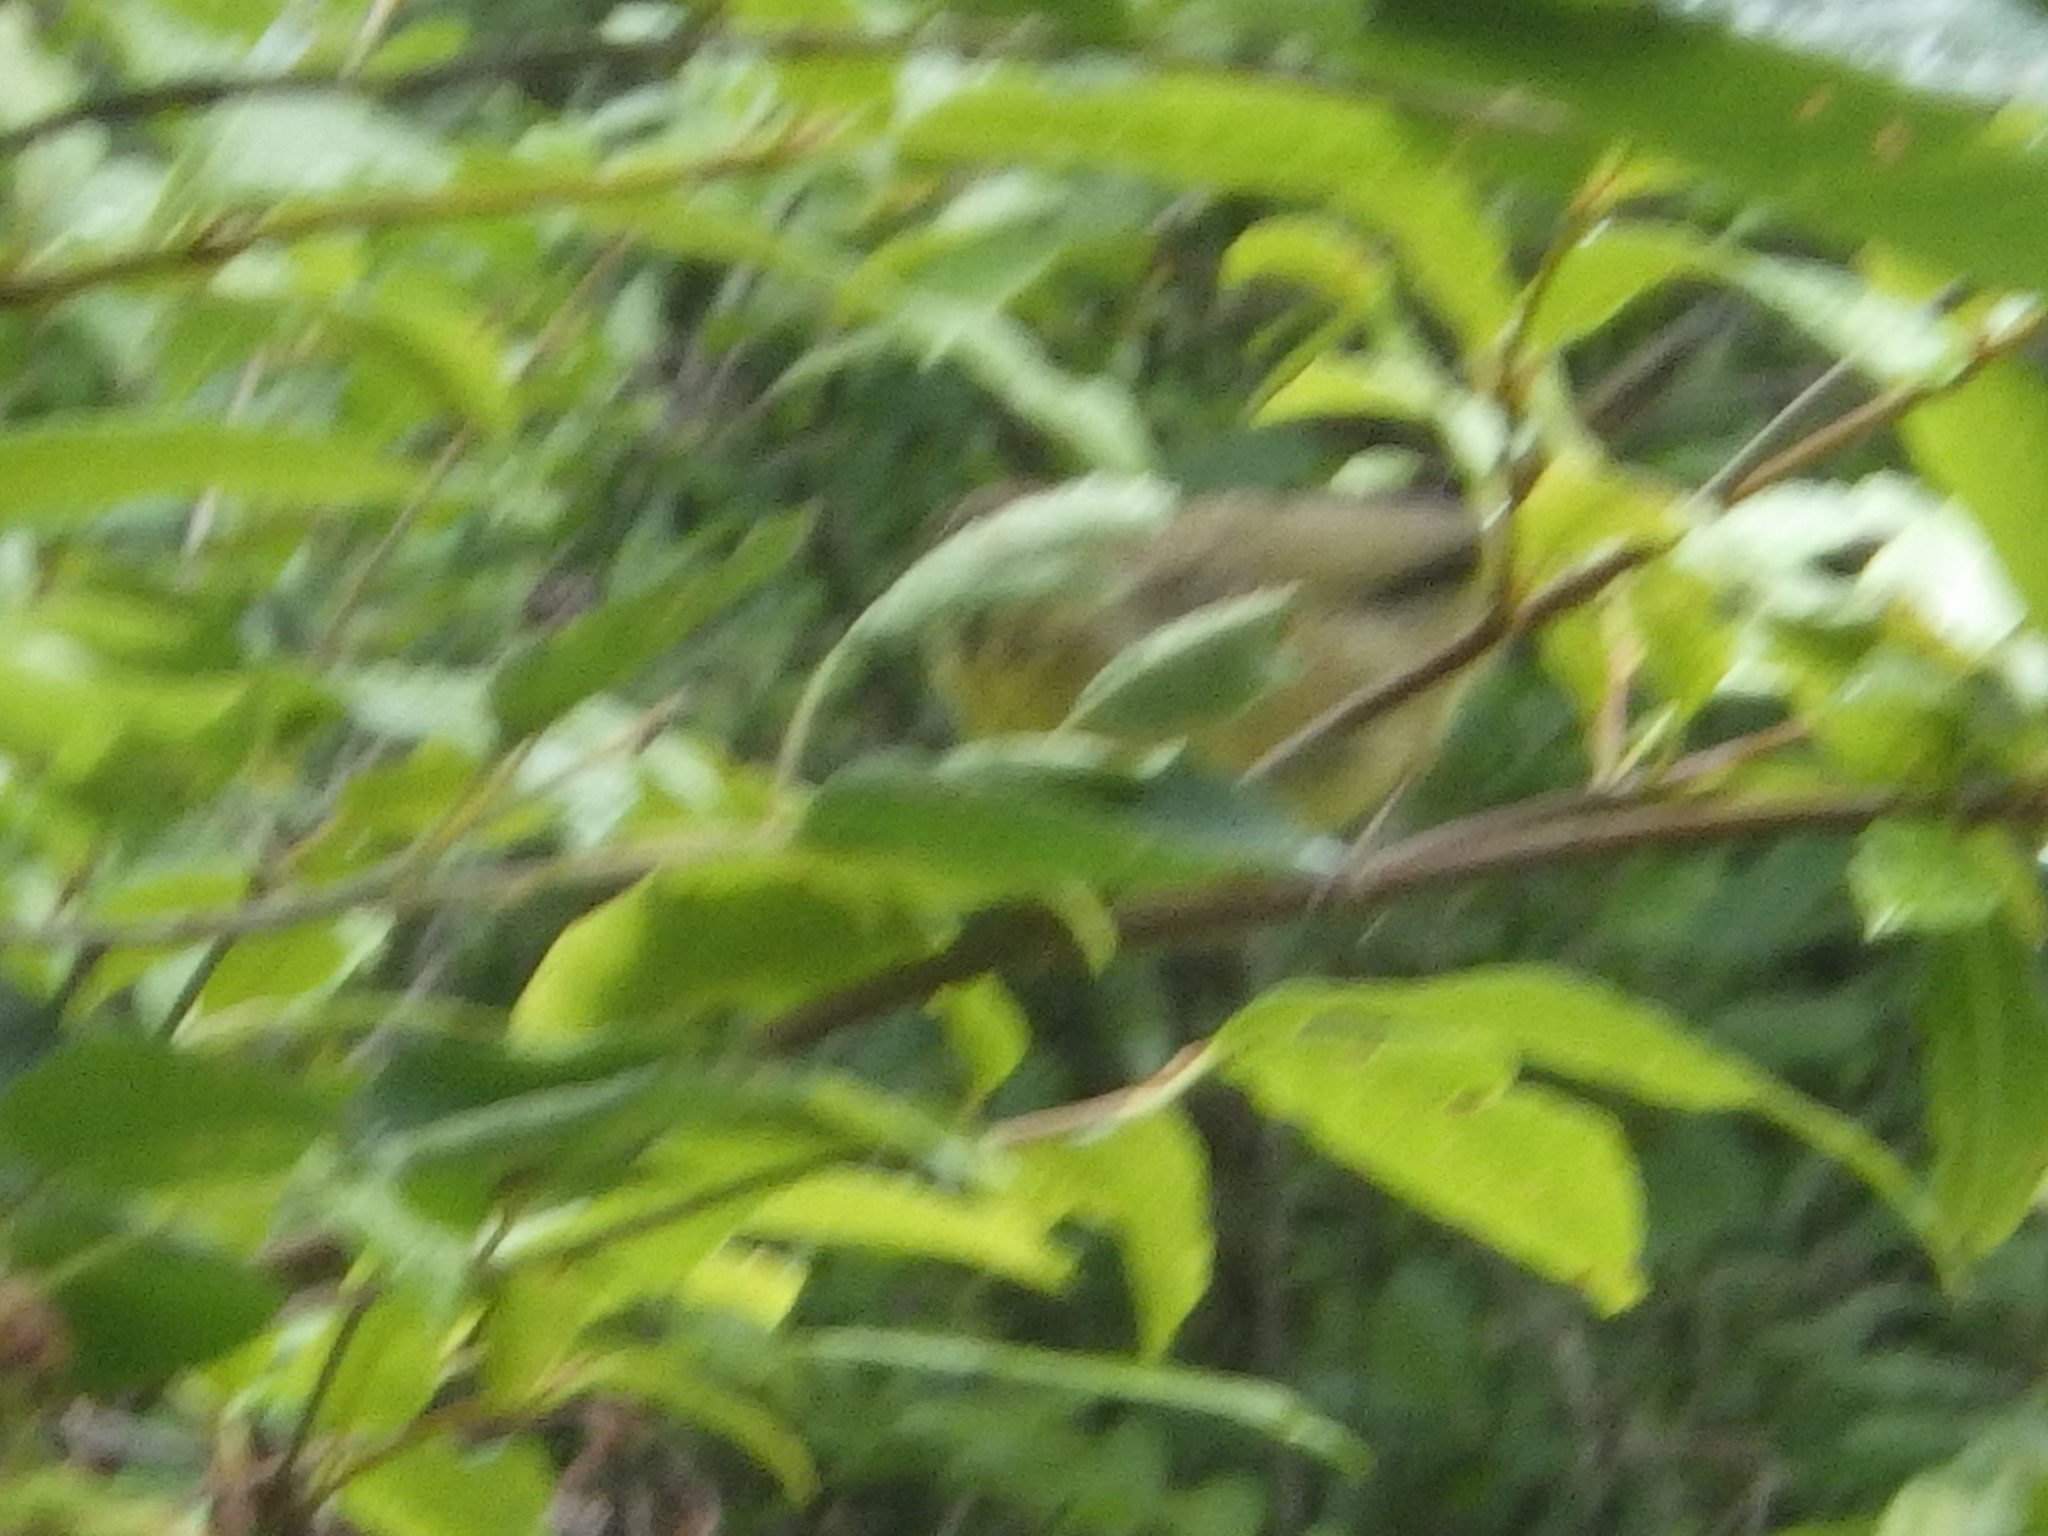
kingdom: Animalia
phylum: Chordata
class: Aves
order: Passeriformes
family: Parulidae
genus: Geothlypis
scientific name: Geothlypis trichas
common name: Common yellowthroat
